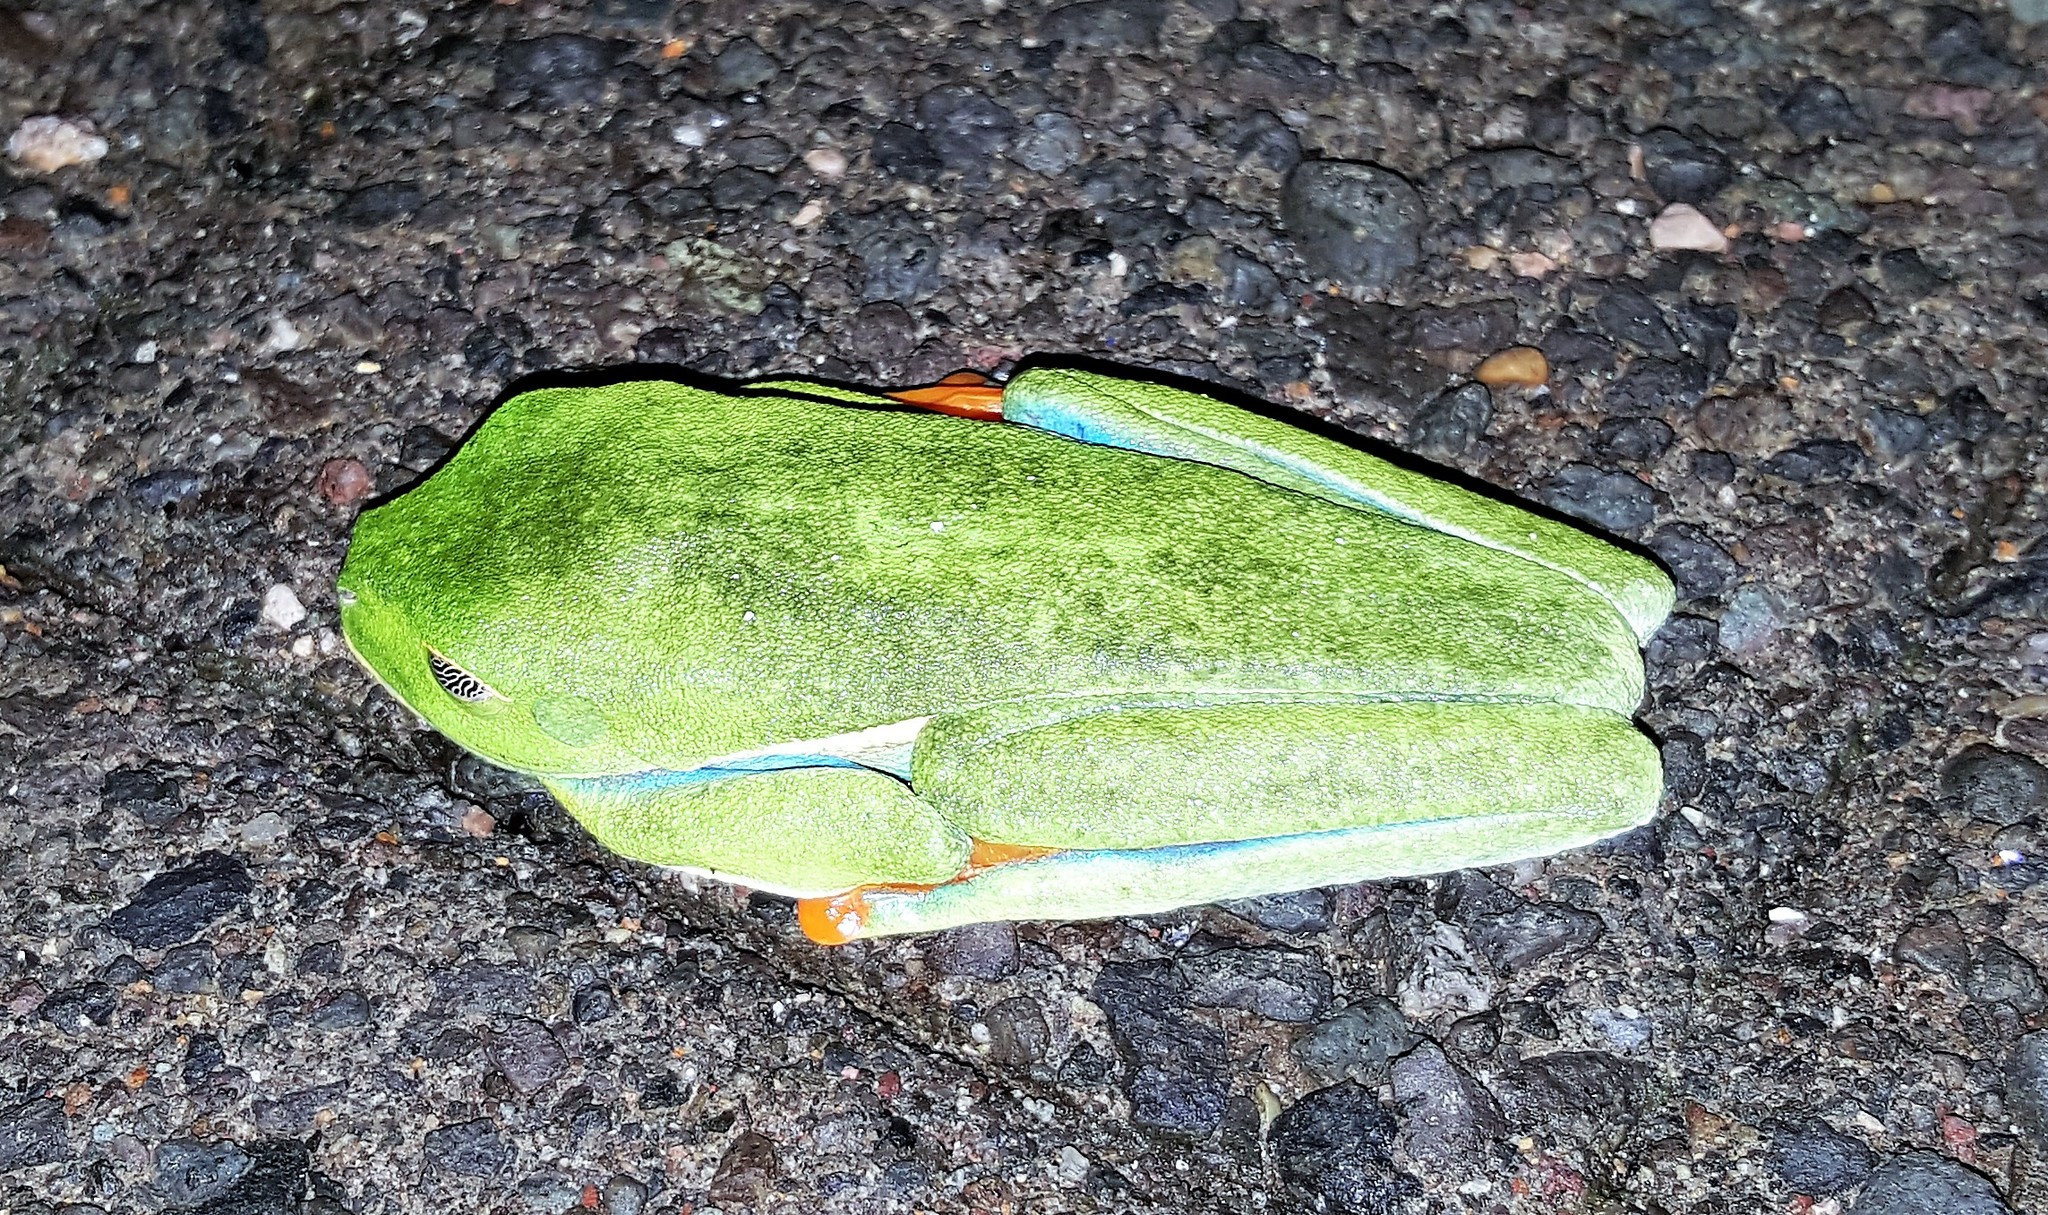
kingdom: Animalia
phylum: Chordata
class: Amphibia
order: Anura
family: Phyllomedusidae
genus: Agalychnis
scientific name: Agalychnis callidryas
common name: Red-eyed treefrog
